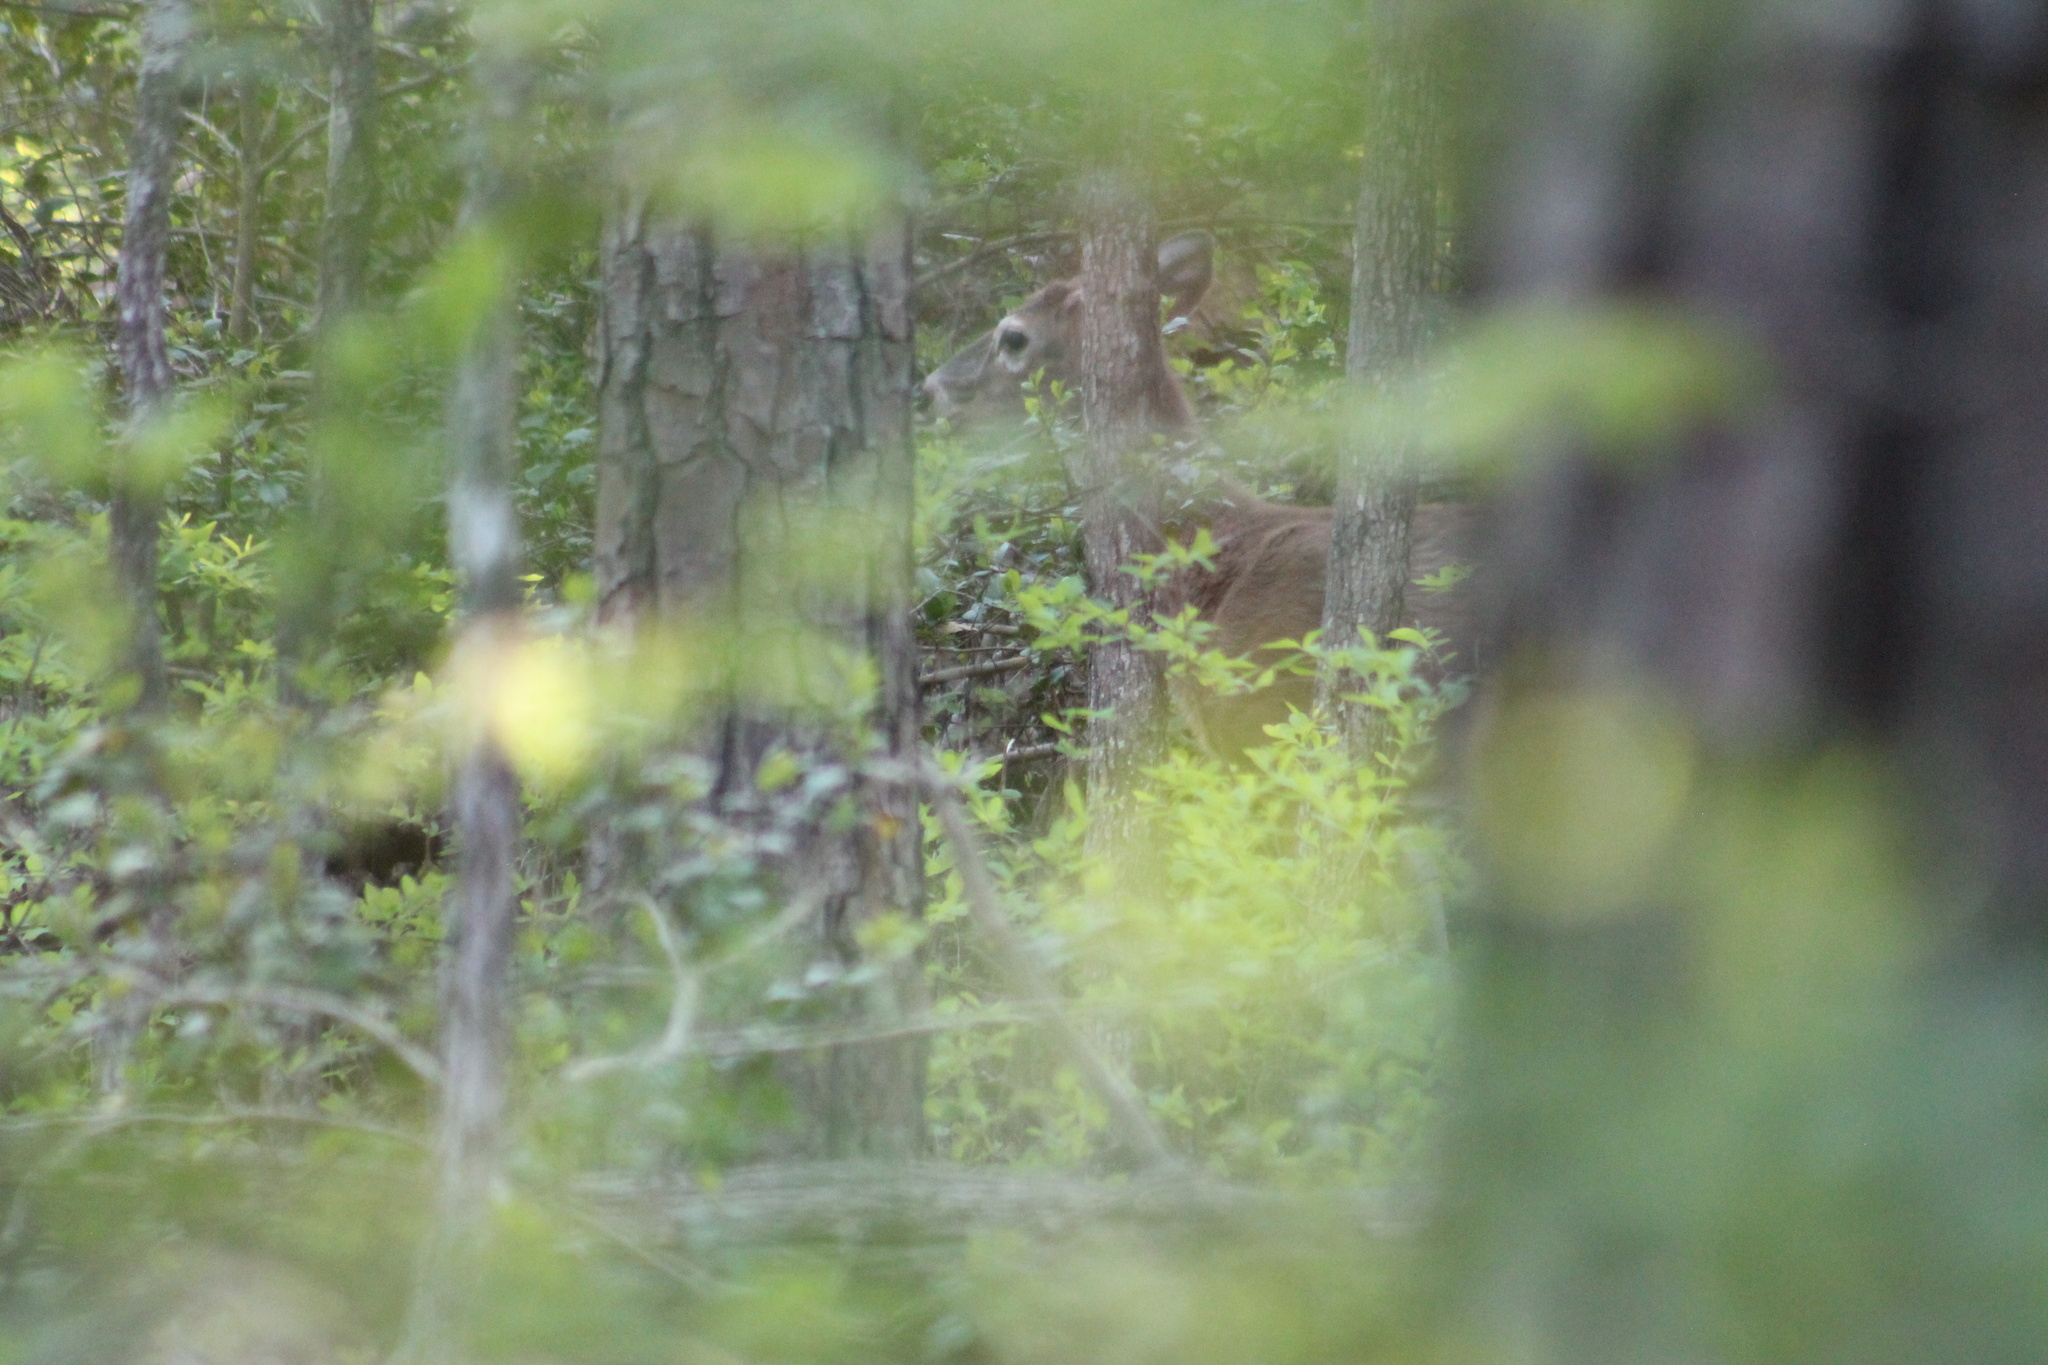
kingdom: Animalia
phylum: Chordata
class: Mammalia
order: Artiodactyla
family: Cervidae
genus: Odocoileus
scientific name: Odocoileus virginianus
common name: White-tailed deer
